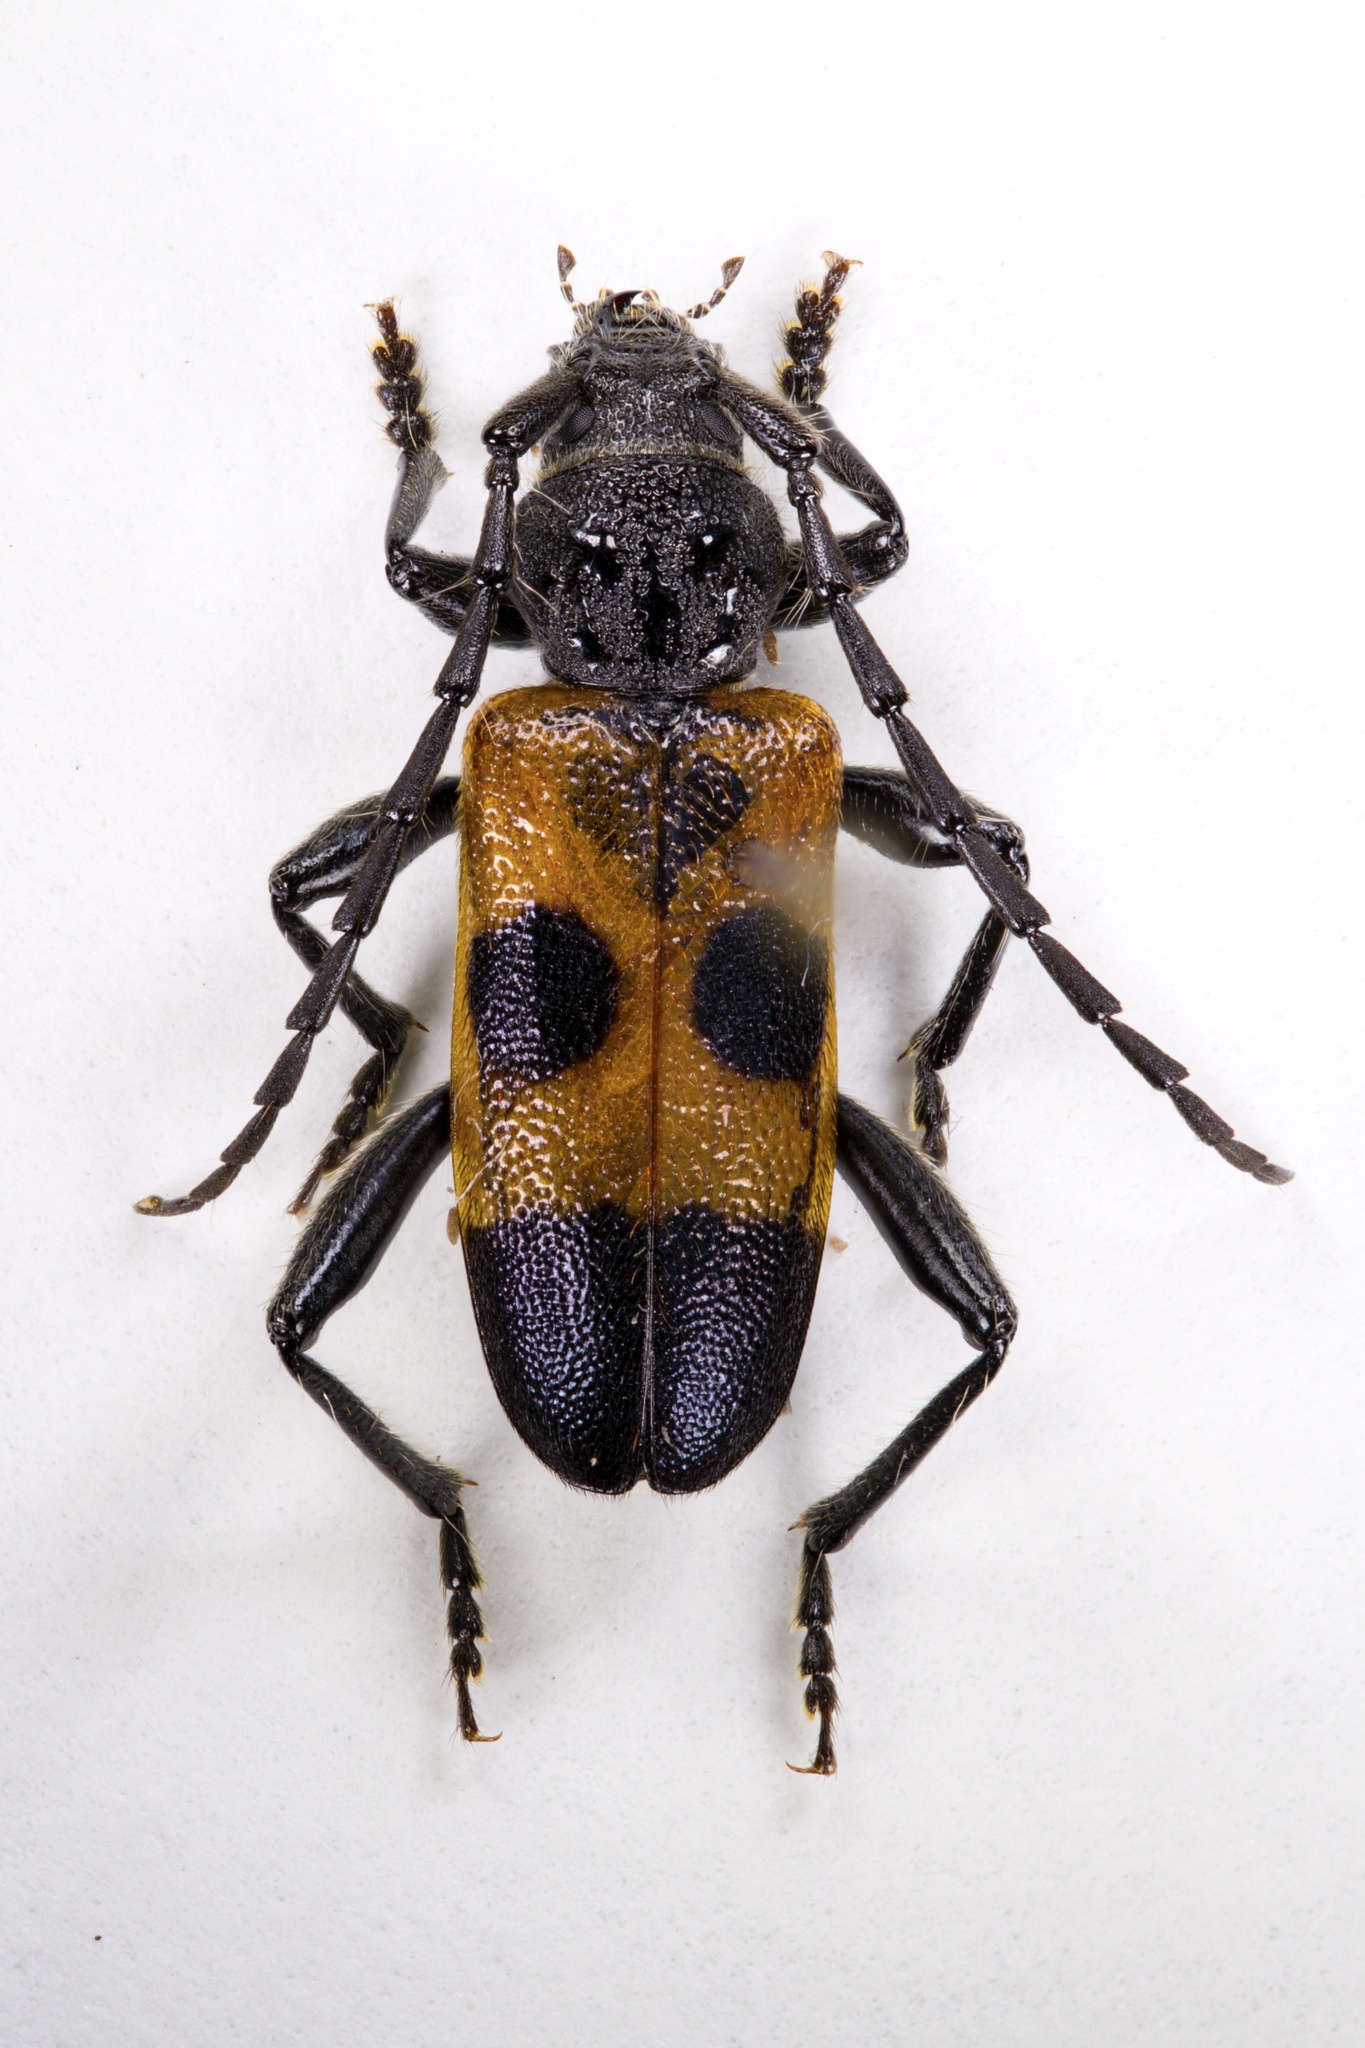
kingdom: Animalia
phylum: Arthropoda
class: Insecta
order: Coleoptera
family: Cerambycidae
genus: Semanotus
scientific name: Semanotus ligneus
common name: Cedartree borer
